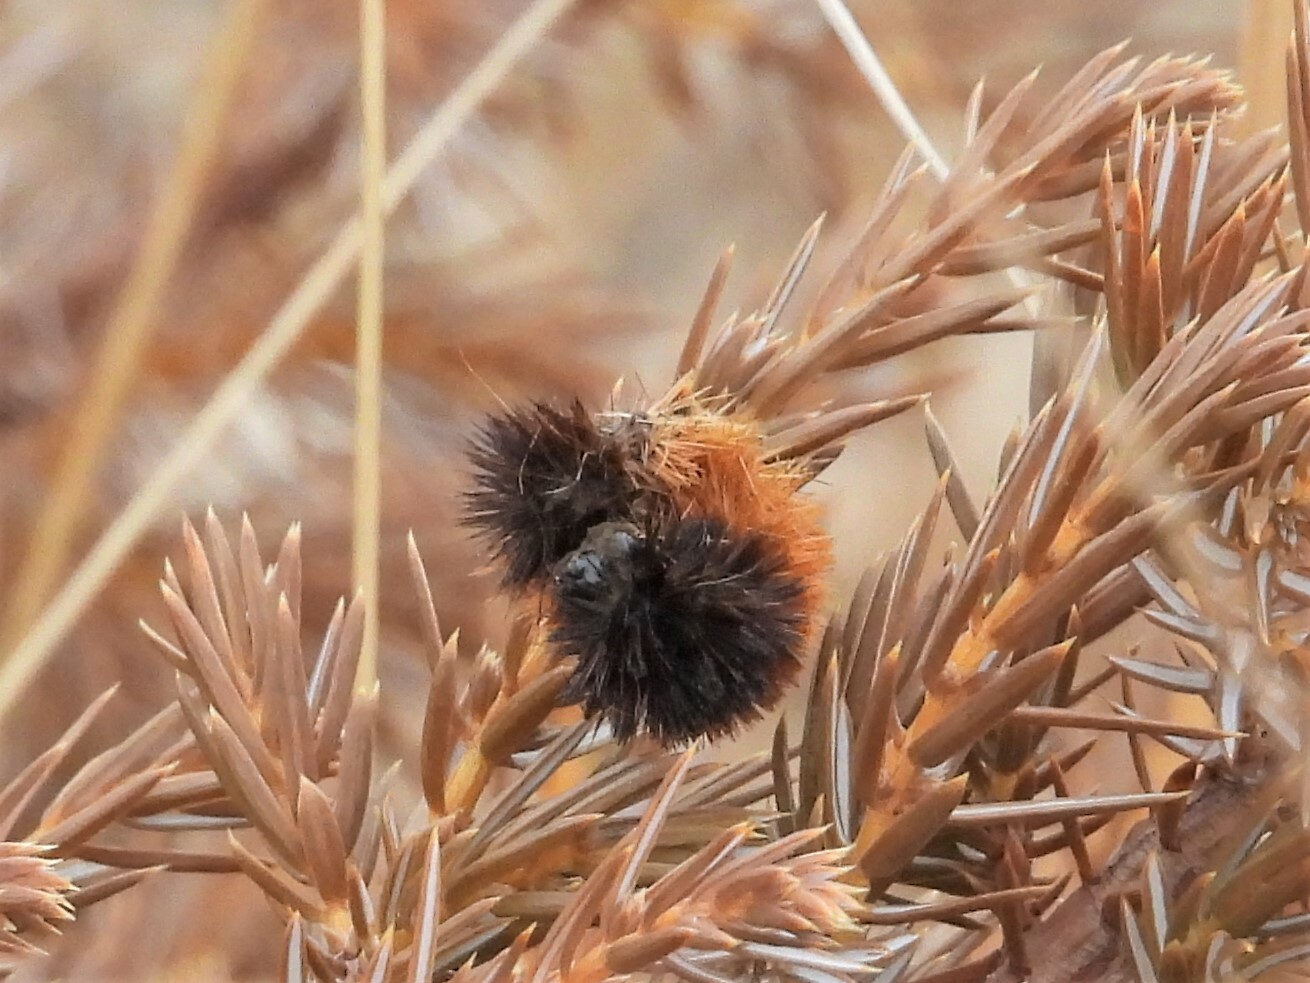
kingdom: Animalia
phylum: Arthropoda
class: Insecta
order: Lepidoptera
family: Erebidae
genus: Pyrrharctia
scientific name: Pyrrharctia isabella
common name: Isabella tiger moth
